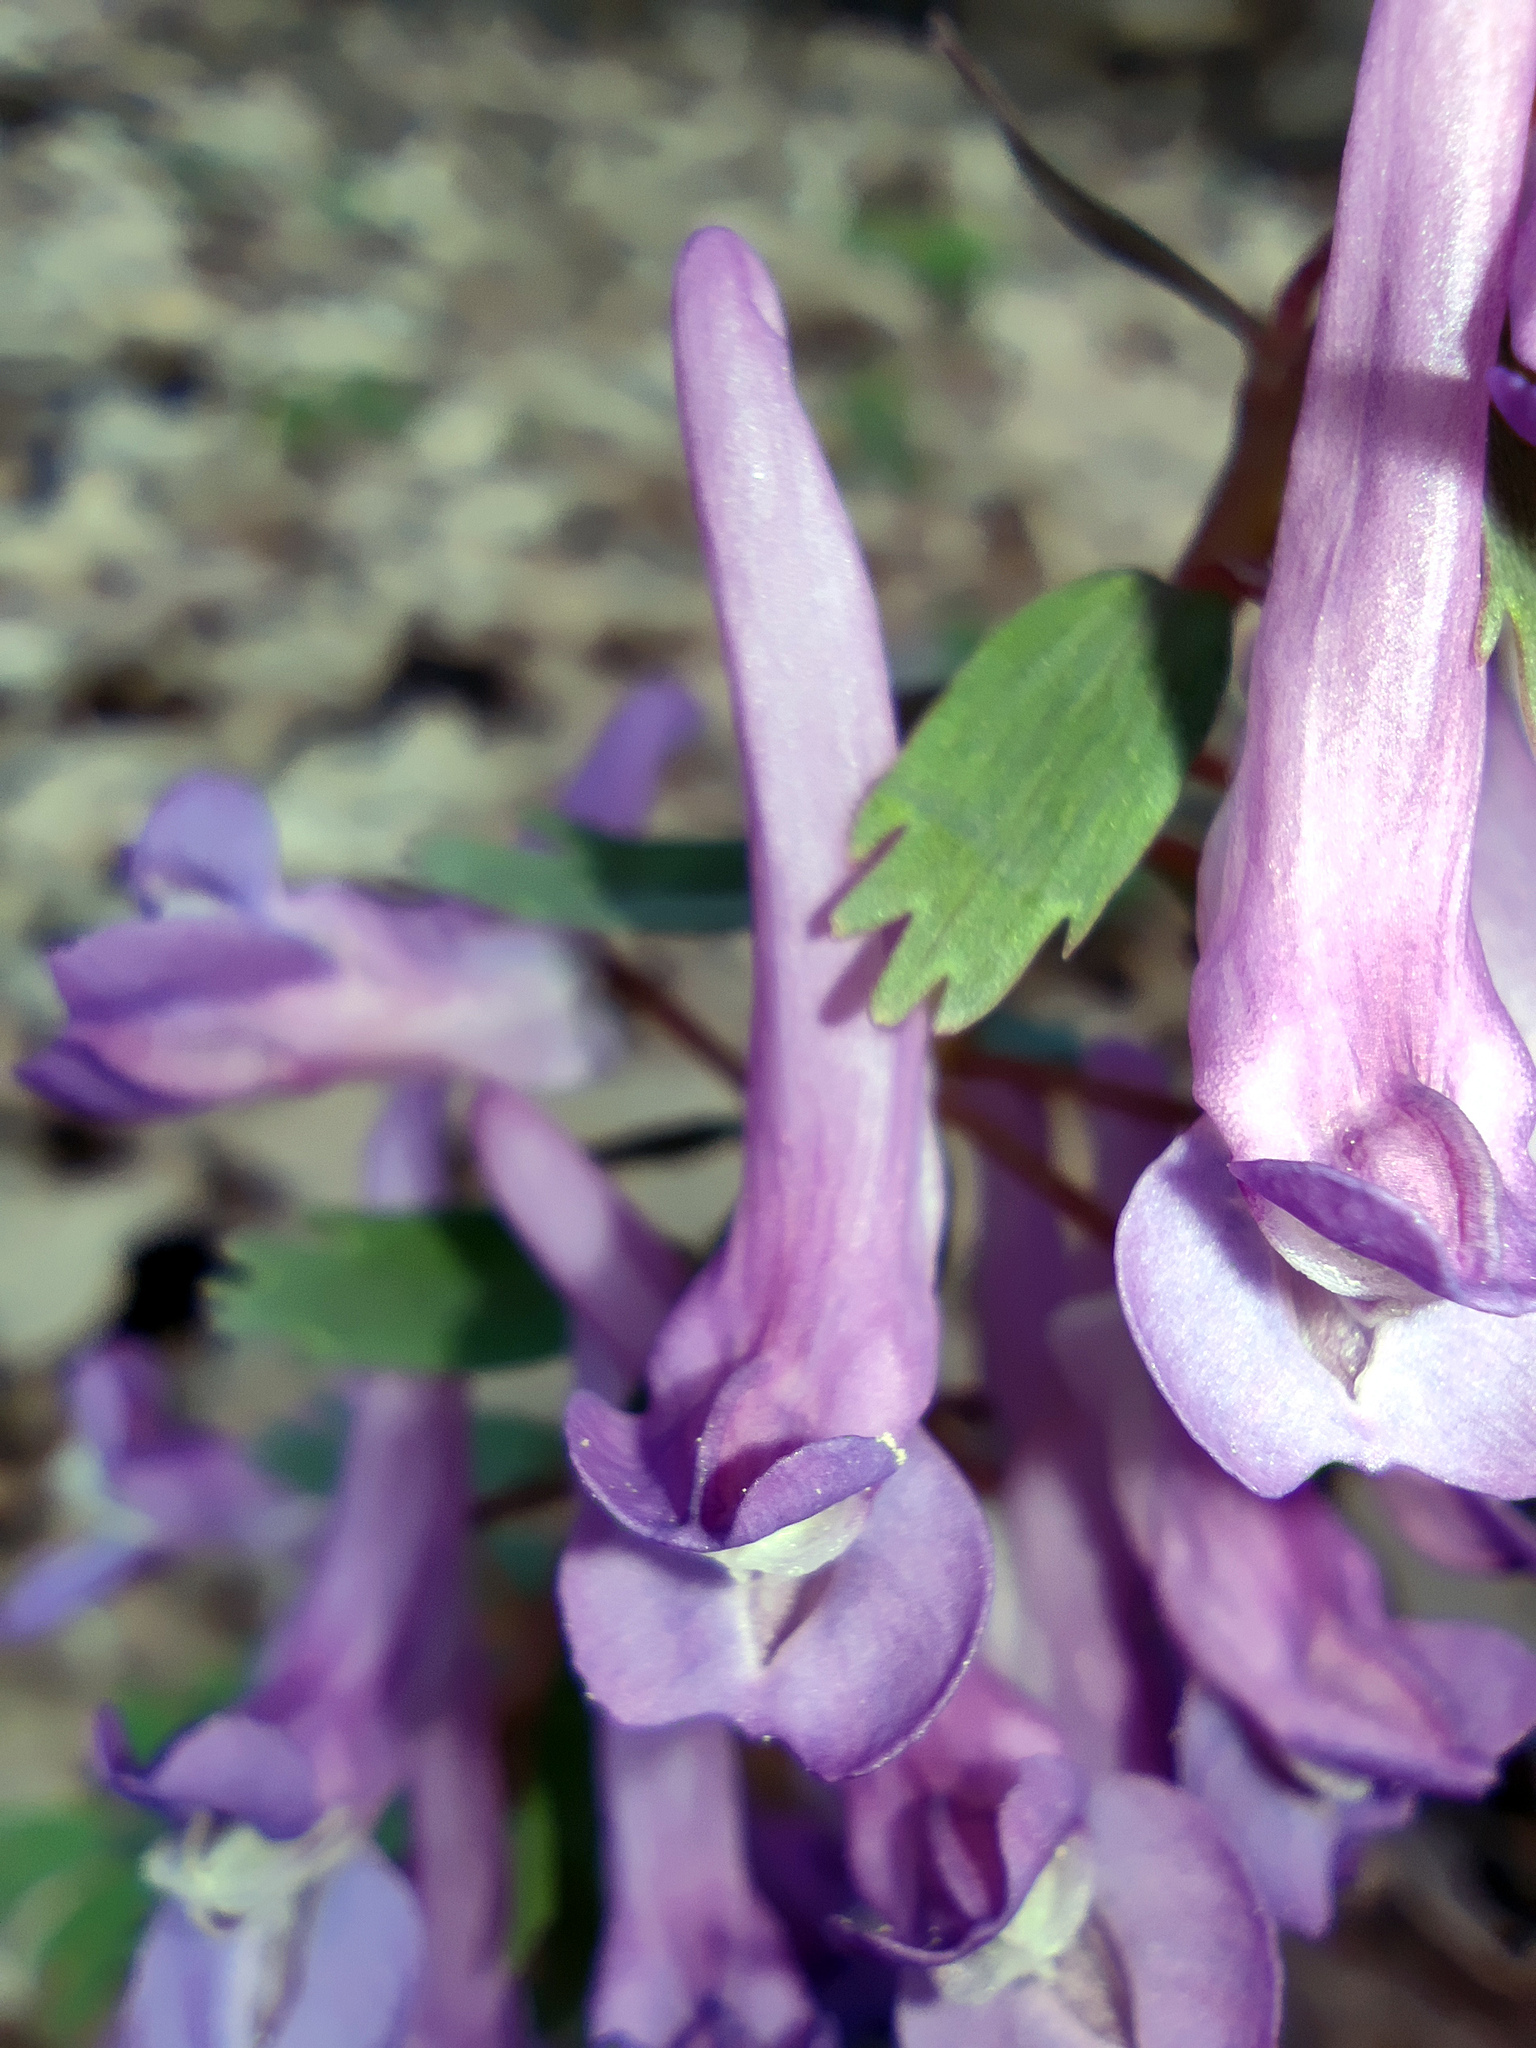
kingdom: Plantae
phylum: Tracheophyta
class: Magnoliopsida
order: Ranunculales
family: Papaveraceae
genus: Corydalis
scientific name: Corydalis solida
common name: Bird-in-a-bush
